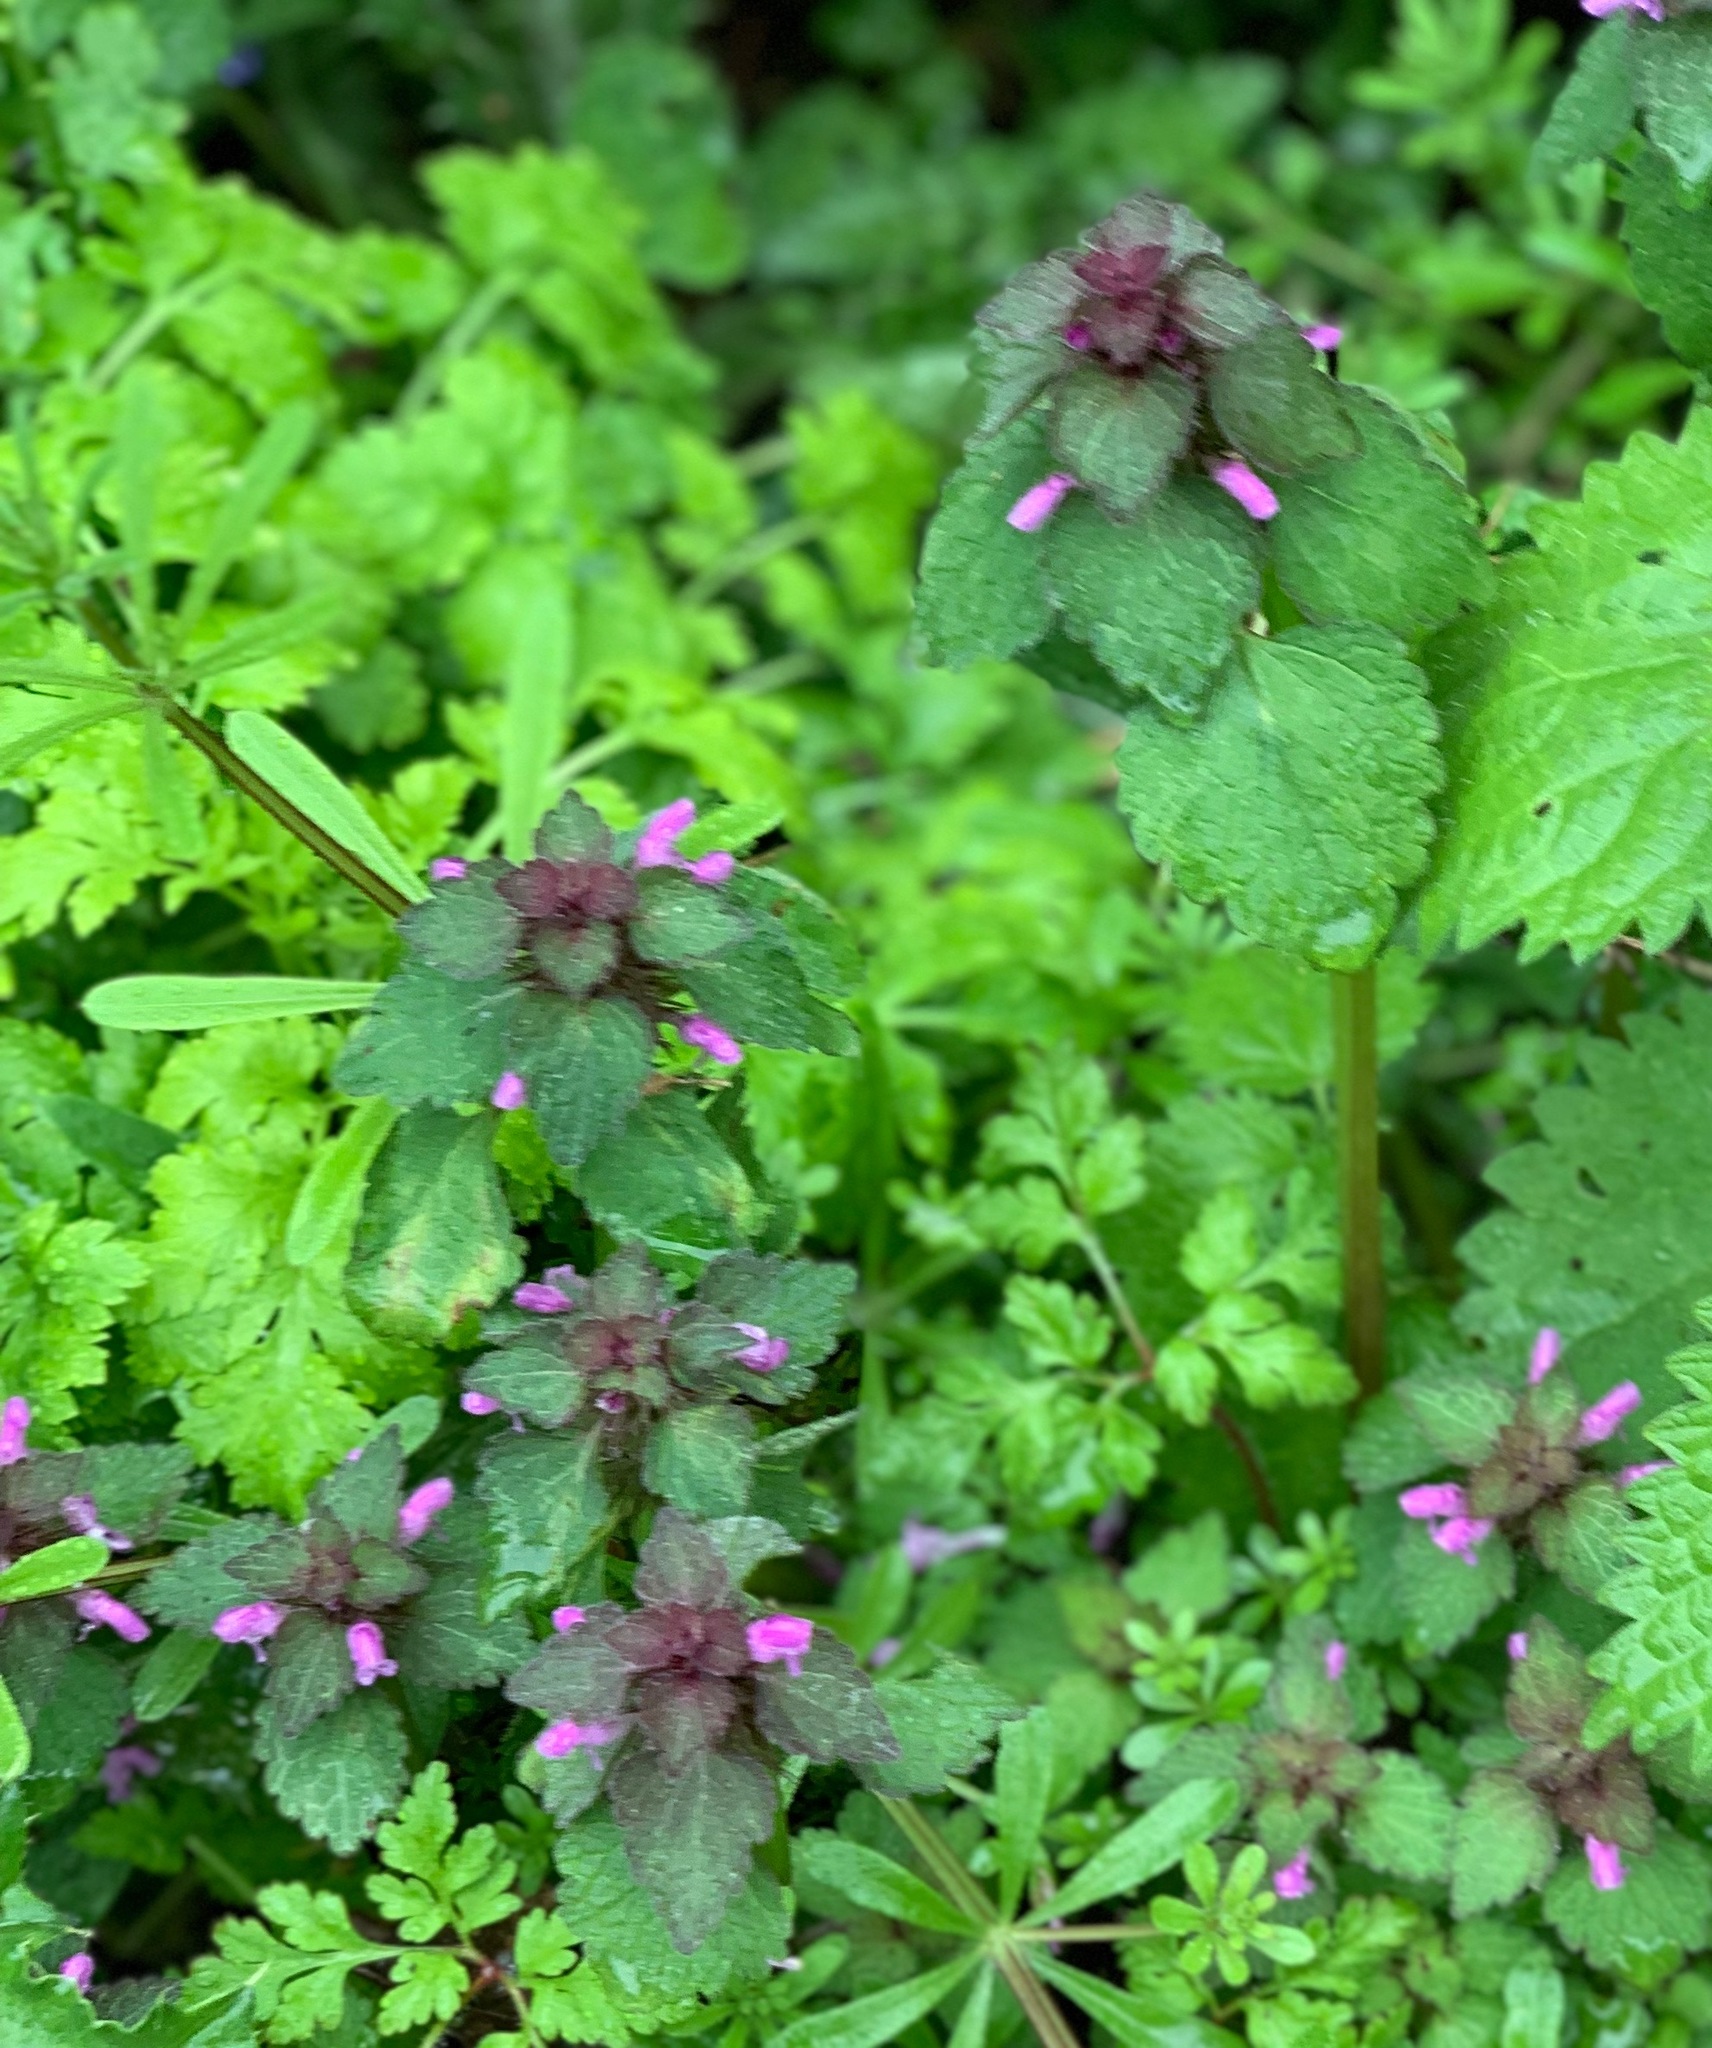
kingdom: Plantae
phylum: Tracheophyta
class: Magnoliopsida
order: Lamiales
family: Lamiaceae
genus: Lamium
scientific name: Lamium purpureum
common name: Red dead-nettle
